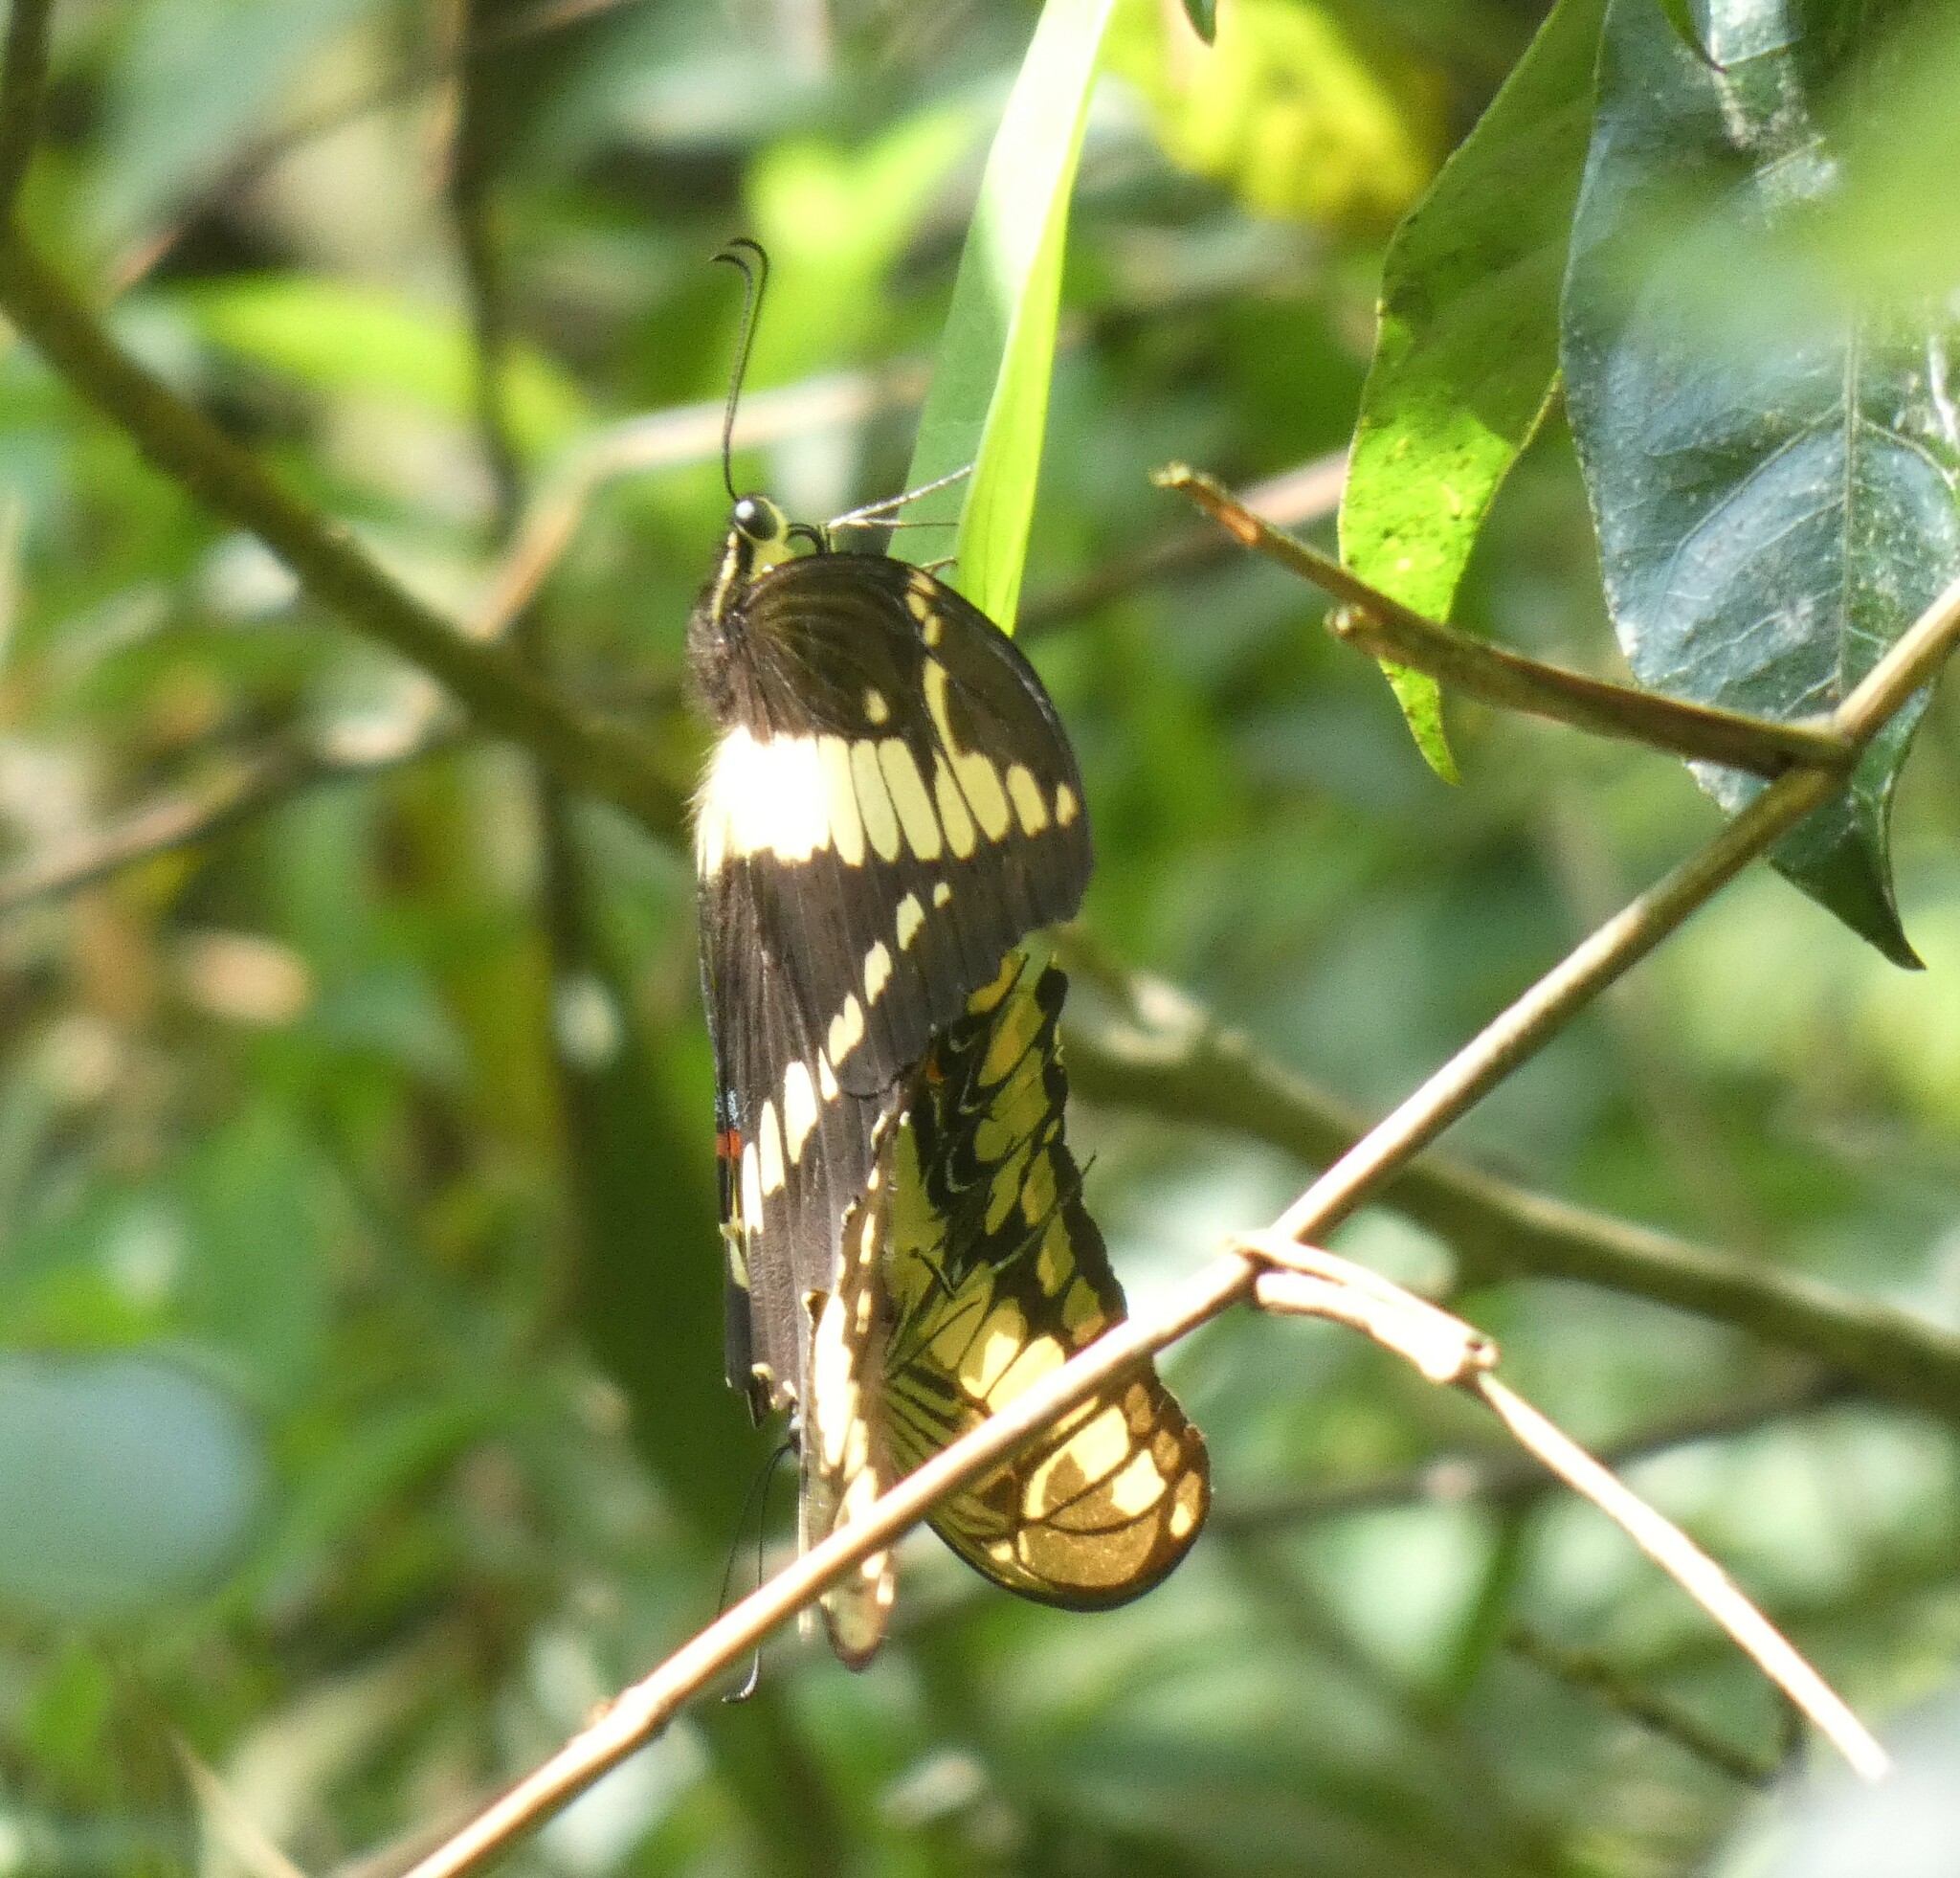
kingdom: Animalia
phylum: Arthropoda
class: Insecta
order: Lepidoptera
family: Papilionidae
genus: Papilio
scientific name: Papilio thoas
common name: King swallowtail
